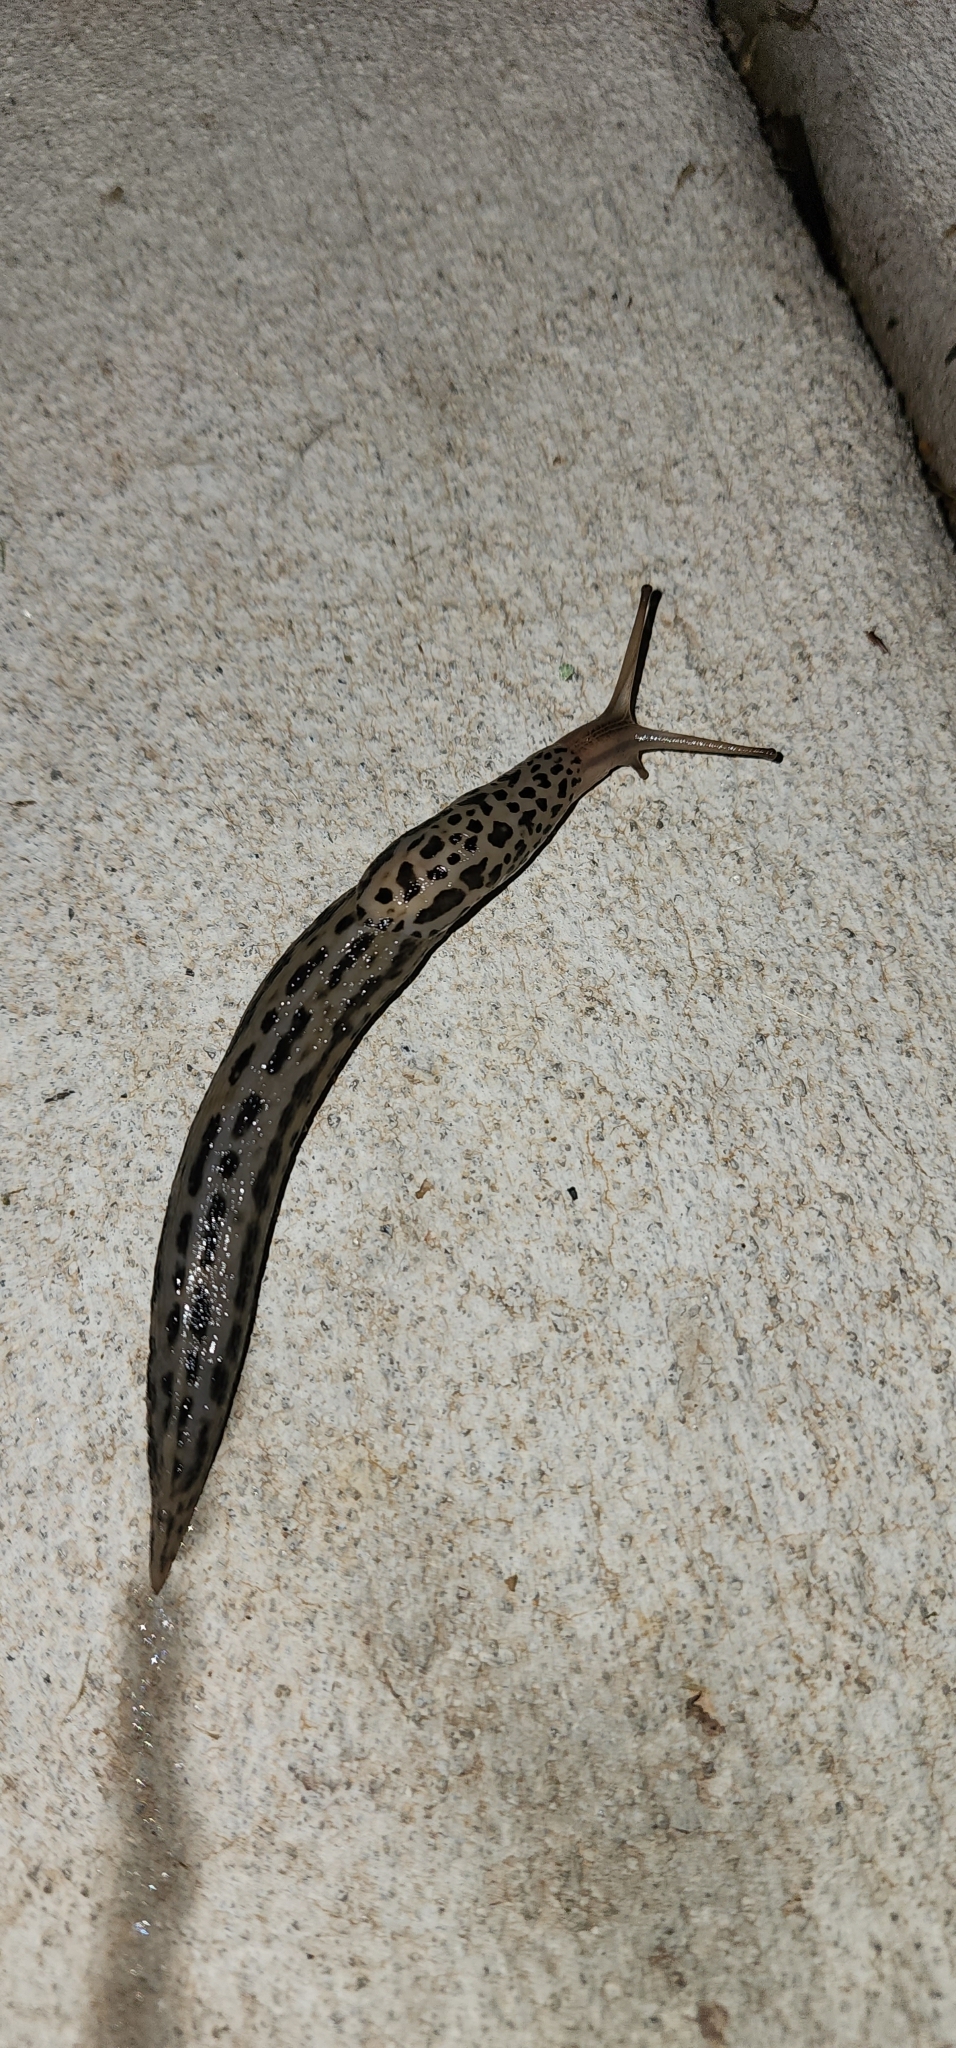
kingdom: Animalia
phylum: Mollusca
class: Gastropoda
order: Stylommatophora
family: Limacidae
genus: Limax
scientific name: Limax maximus
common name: Great grey slug
